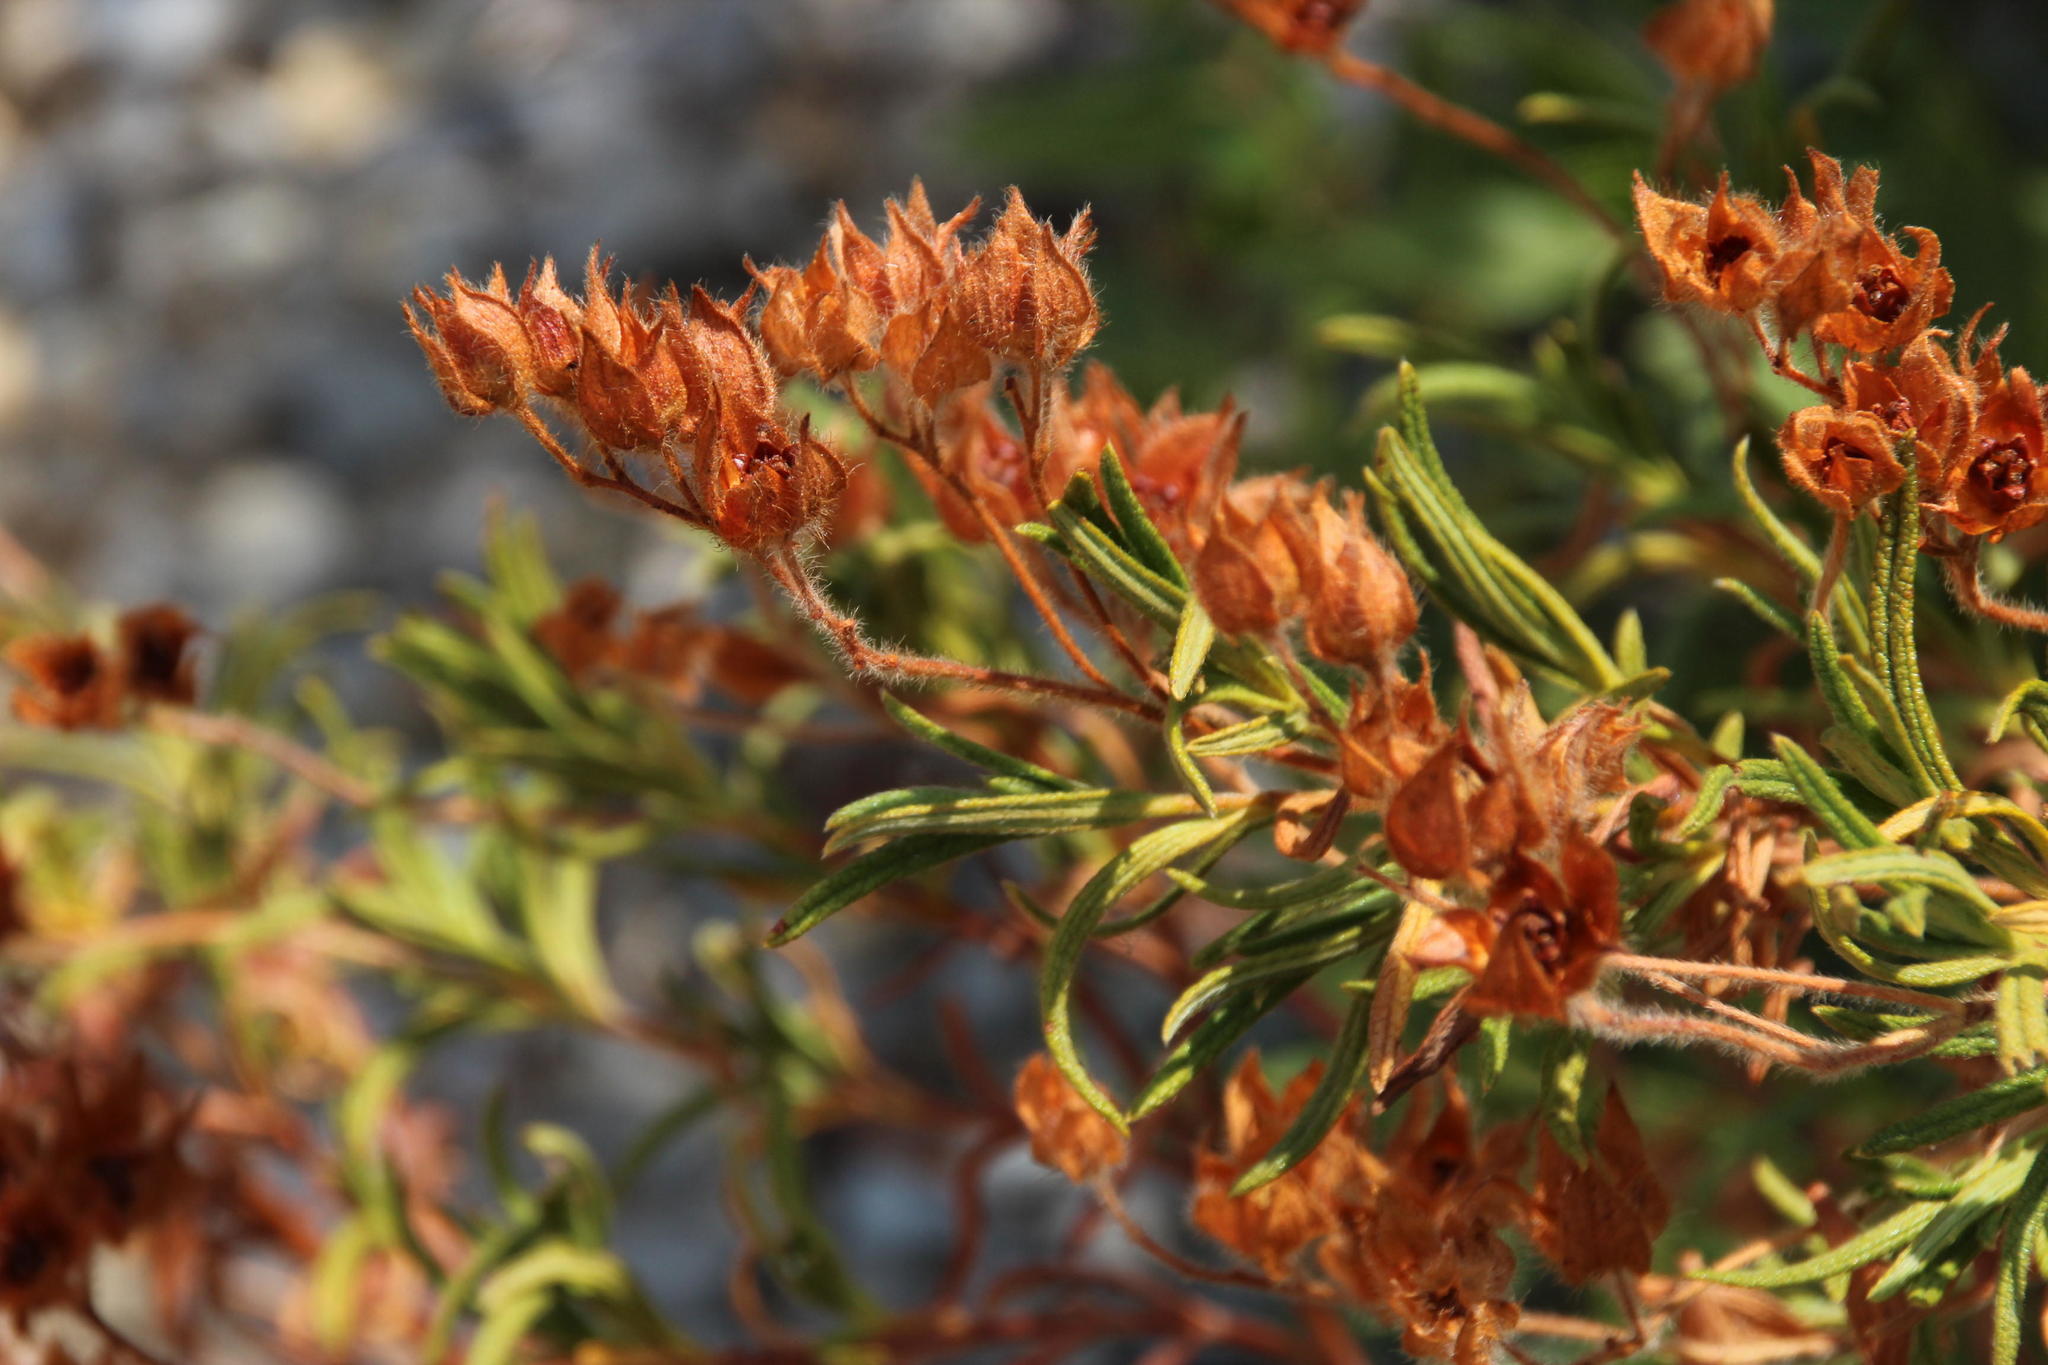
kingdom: Plantae
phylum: Tracheophyta
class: Magnoliopsida
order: Malvales
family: Cistaceae
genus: Cistus
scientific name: Cistus monspeliensis
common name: Montpelier cistus
